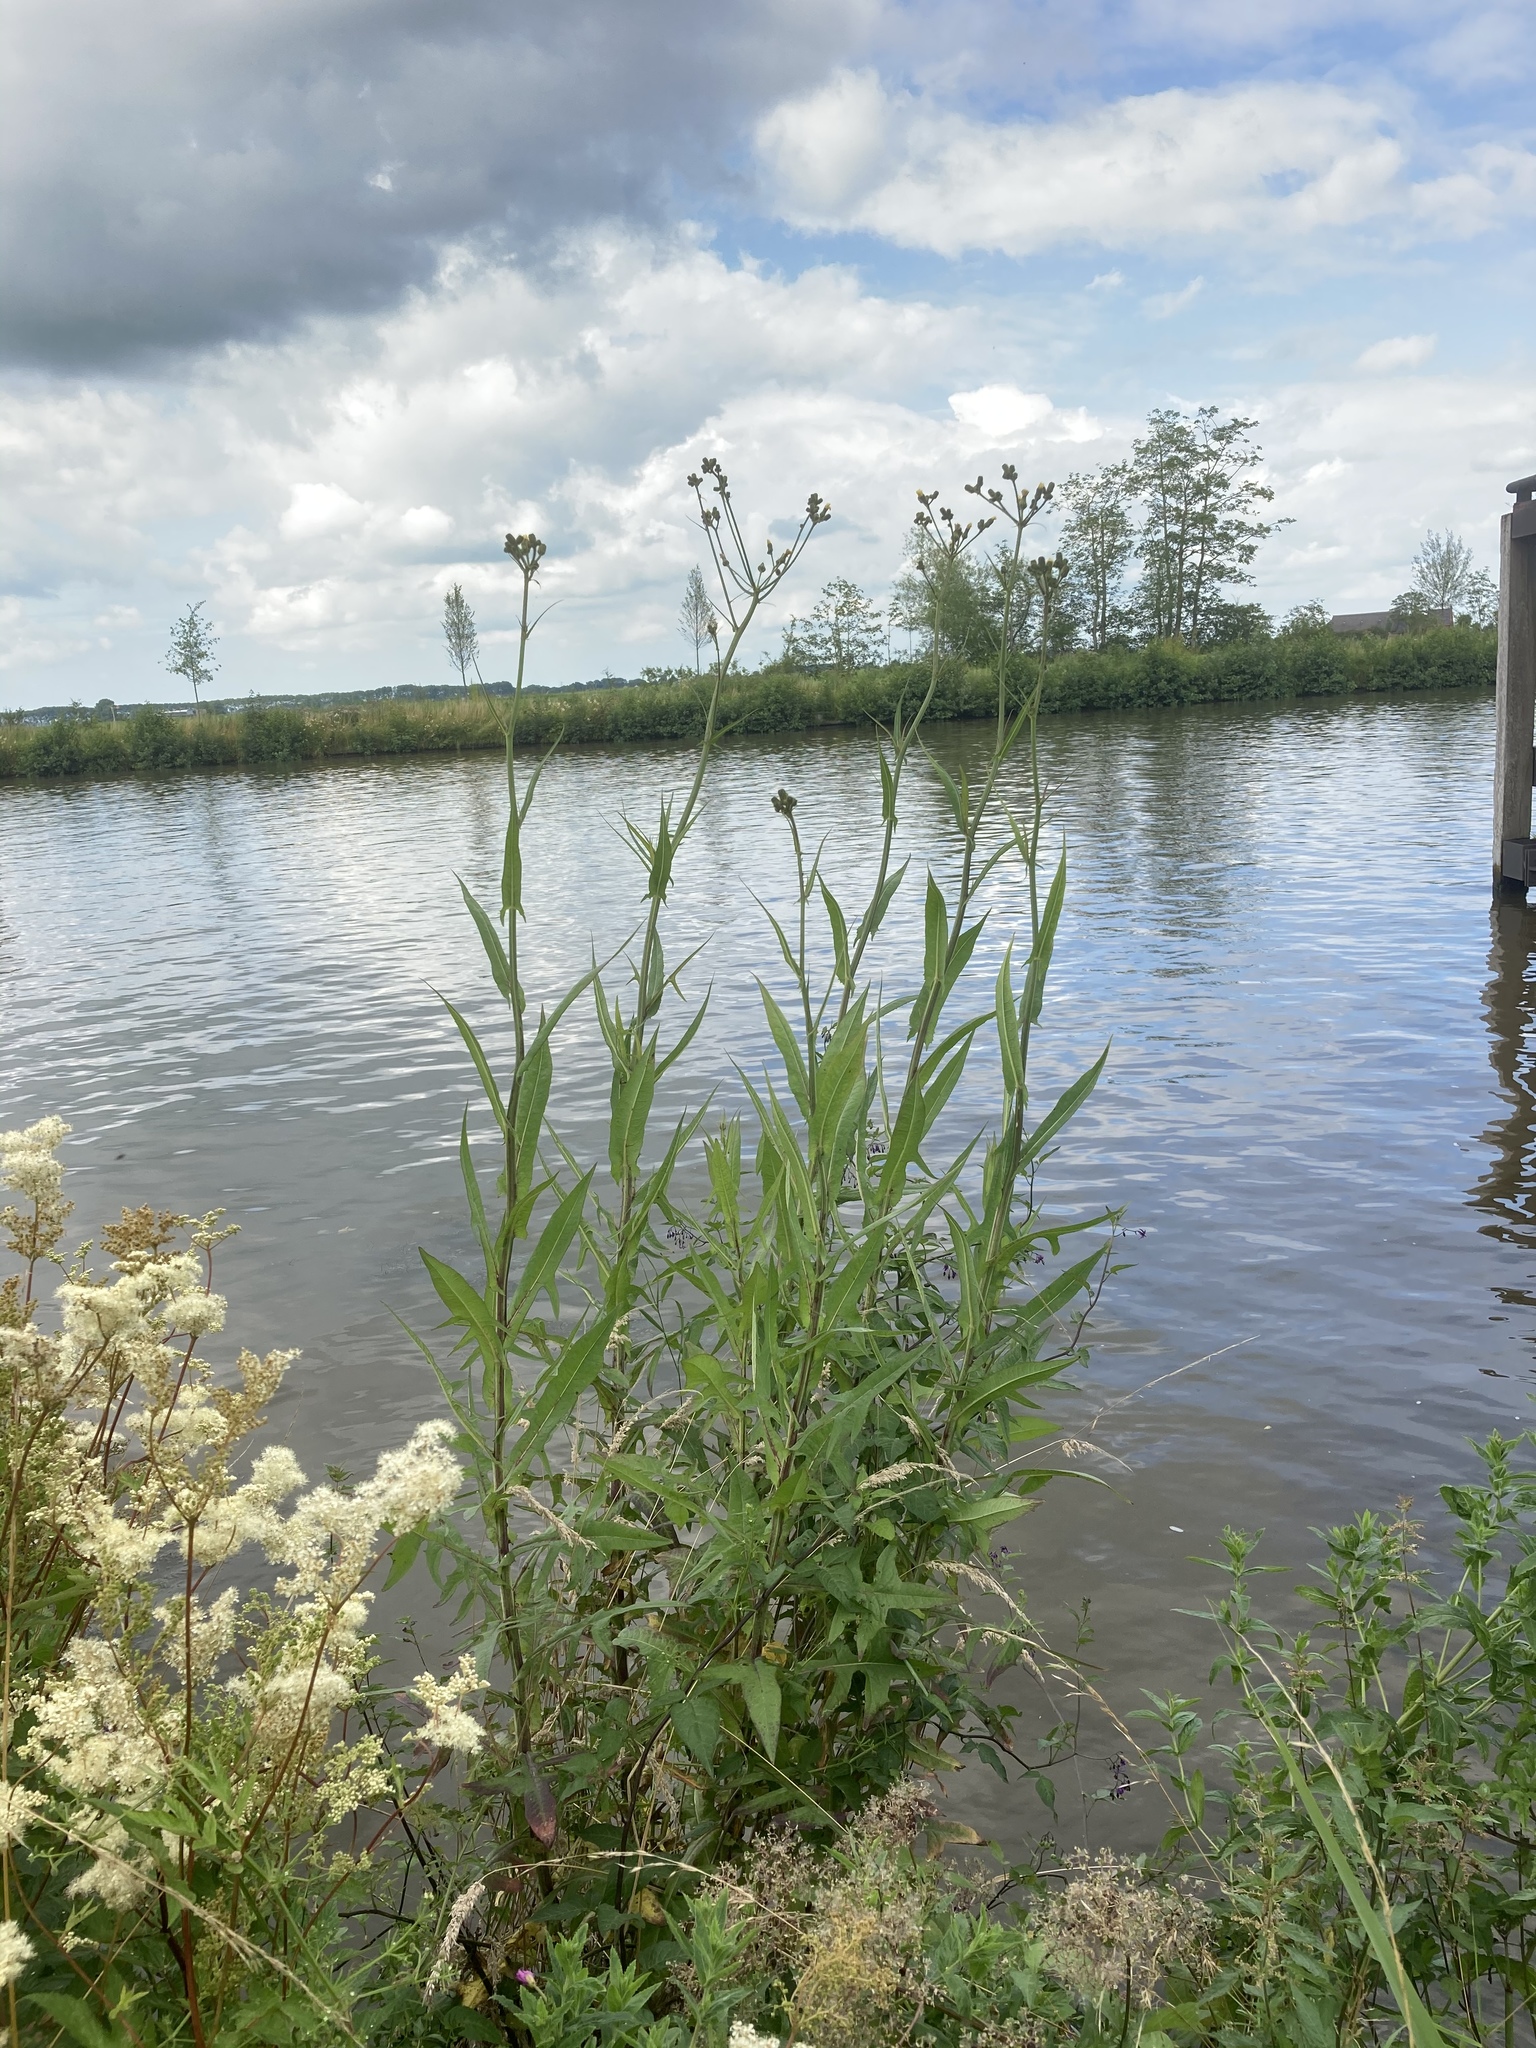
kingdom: Plantae
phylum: Tracheophyta
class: Magnoliopsida
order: Asterales
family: Asteraceae
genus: Sonchus
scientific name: Sonchus palustris
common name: Marsh sow-thistle
